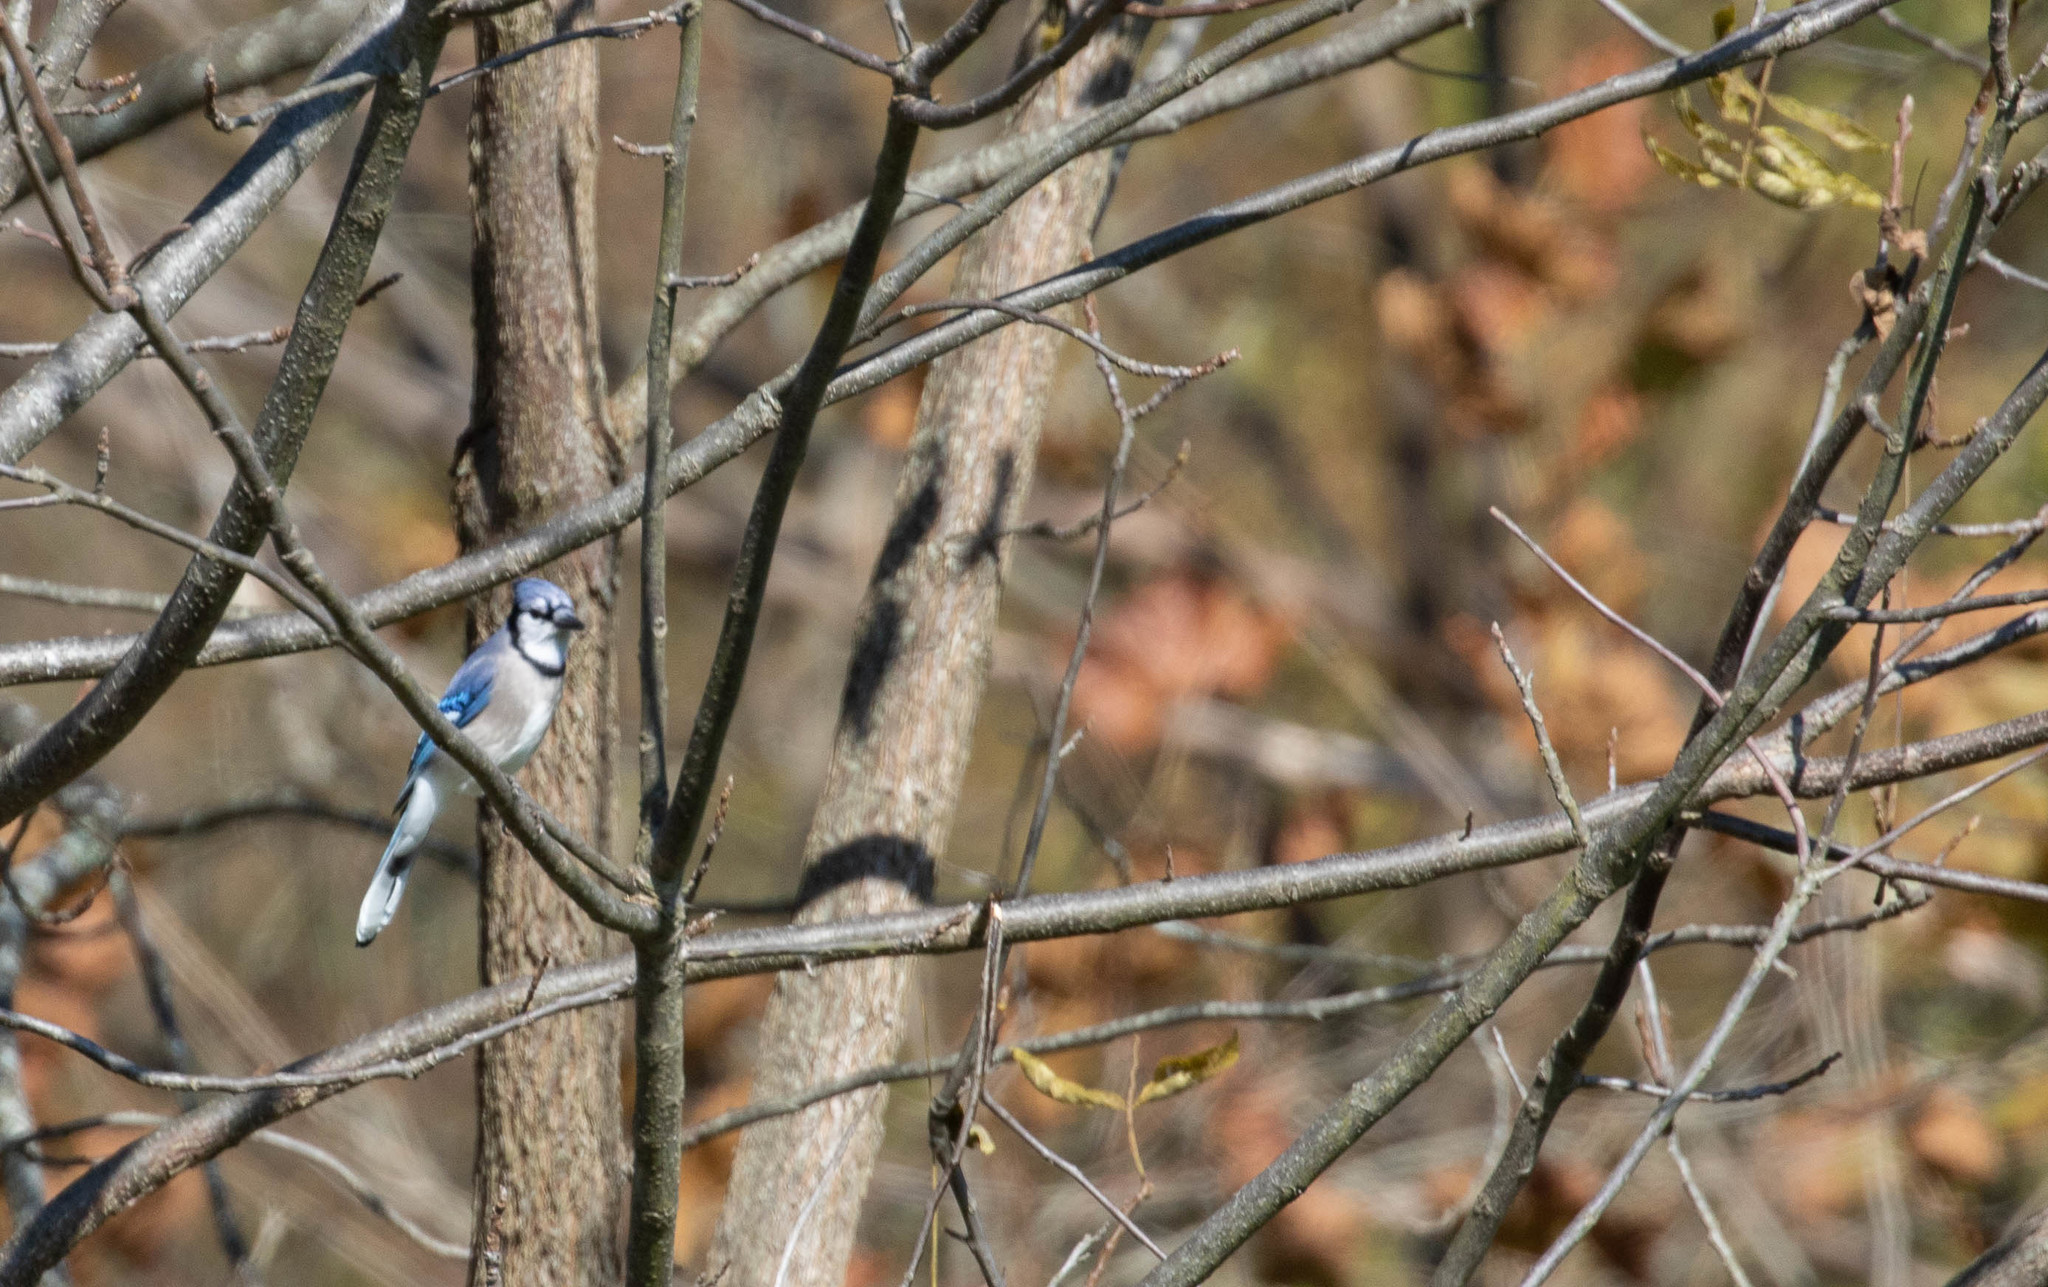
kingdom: Animalia
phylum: Chordata
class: Aves
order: Passeriformes
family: Corvidae
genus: Cyanocitta
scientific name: Cyanocitta cristata
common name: Blue jay
